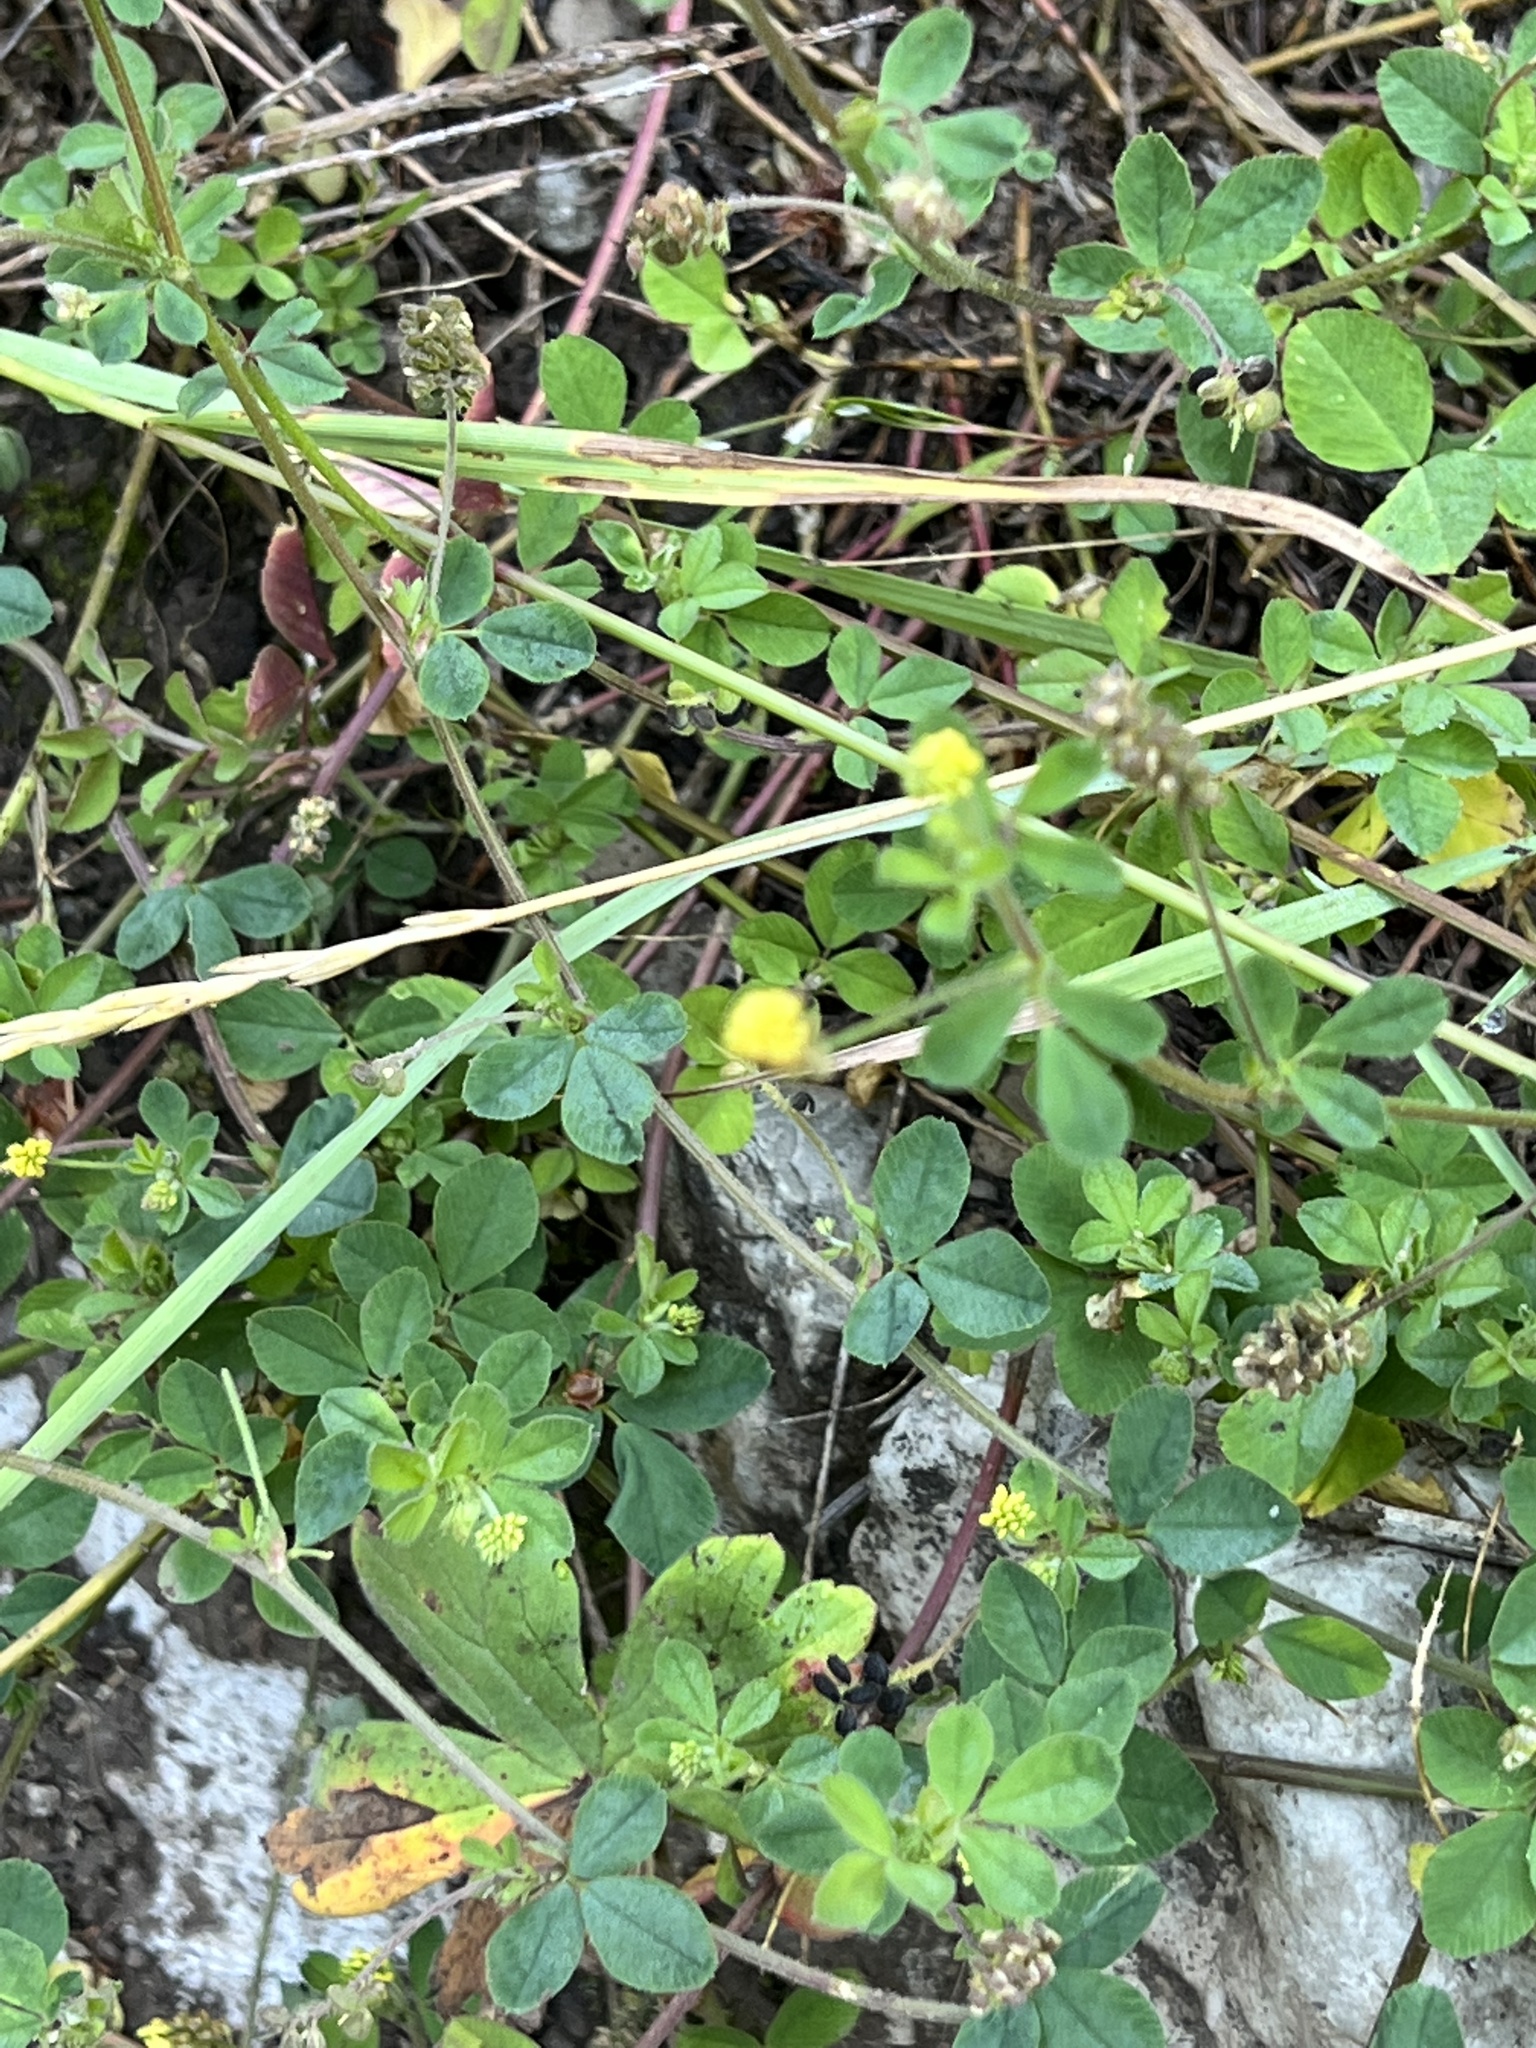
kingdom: Plantae
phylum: Tracheophyta
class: Magnoliopsida
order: Fabales
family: Fabaceae
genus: Medicago
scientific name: Medicago lupulina
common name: Black medick
